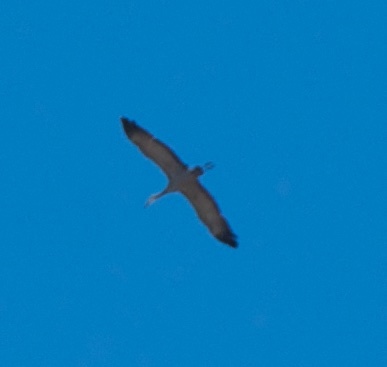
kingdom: Animalia
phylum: Chordata
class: Aves
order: Gruiformes
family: Gruidae
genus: Grus
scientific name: Grus canadensis
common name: Sandhill crane
